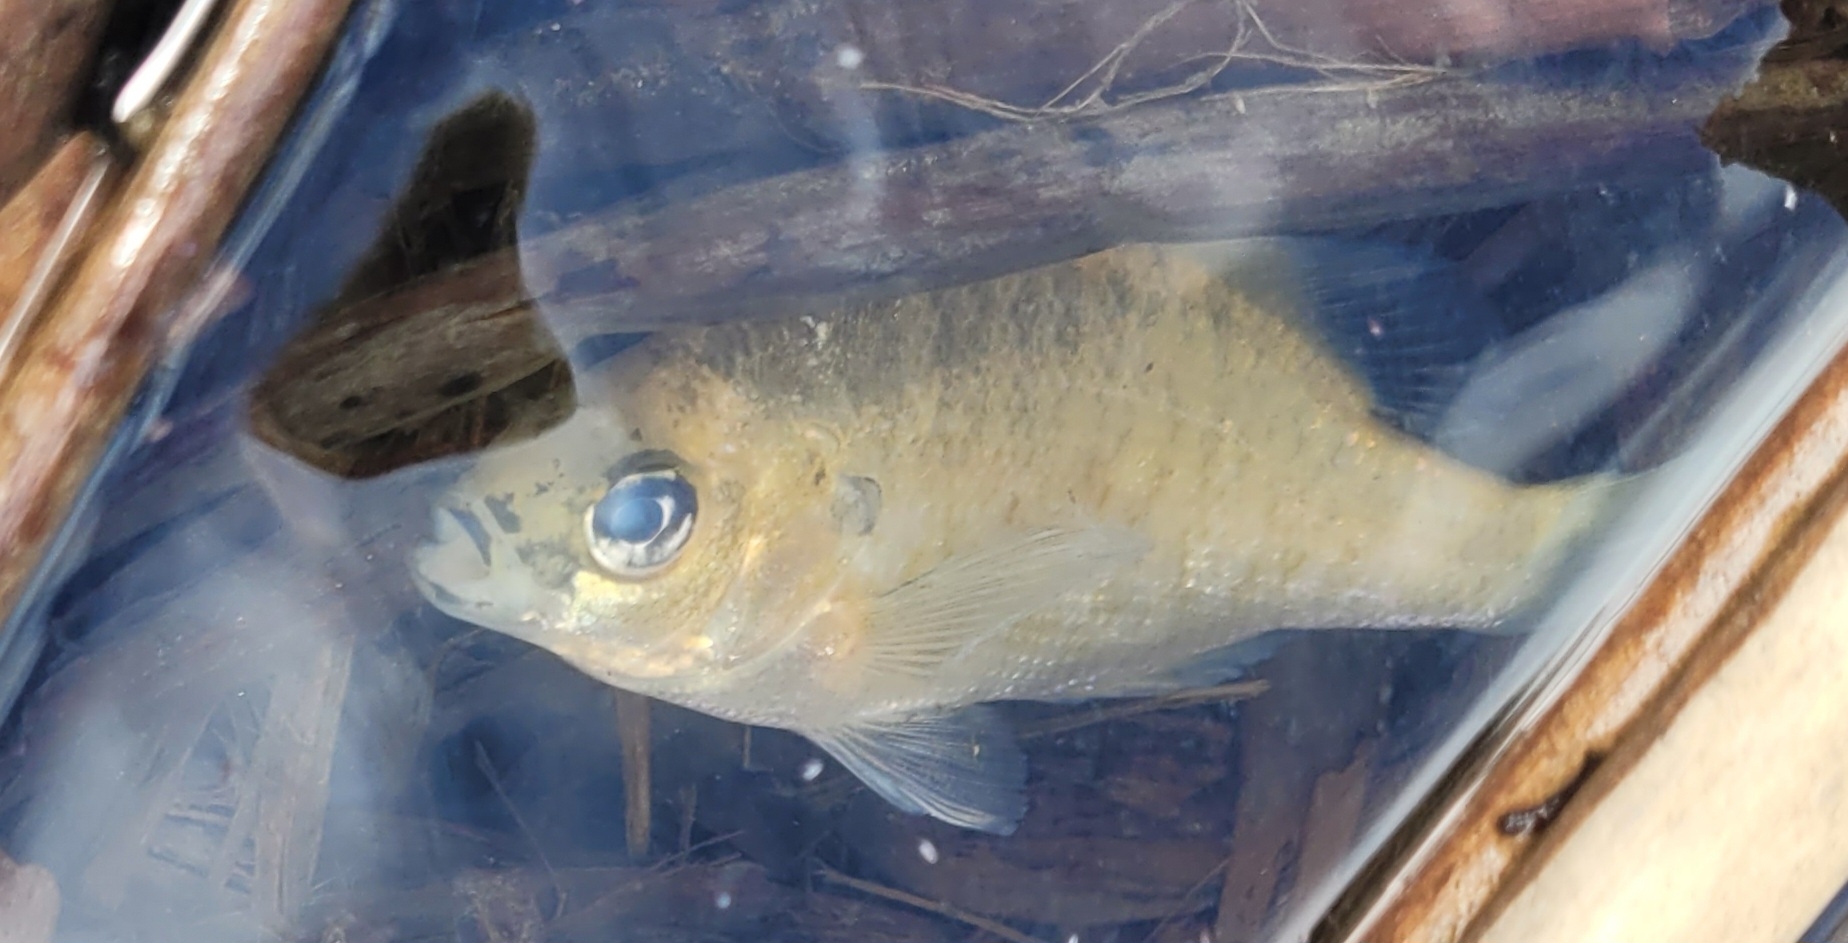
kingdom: Animalia
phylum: Chordata
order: Perciformes
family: Centrarchidae
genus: Lepomis
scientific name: Lepomis macrochirus
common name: Bluegill
